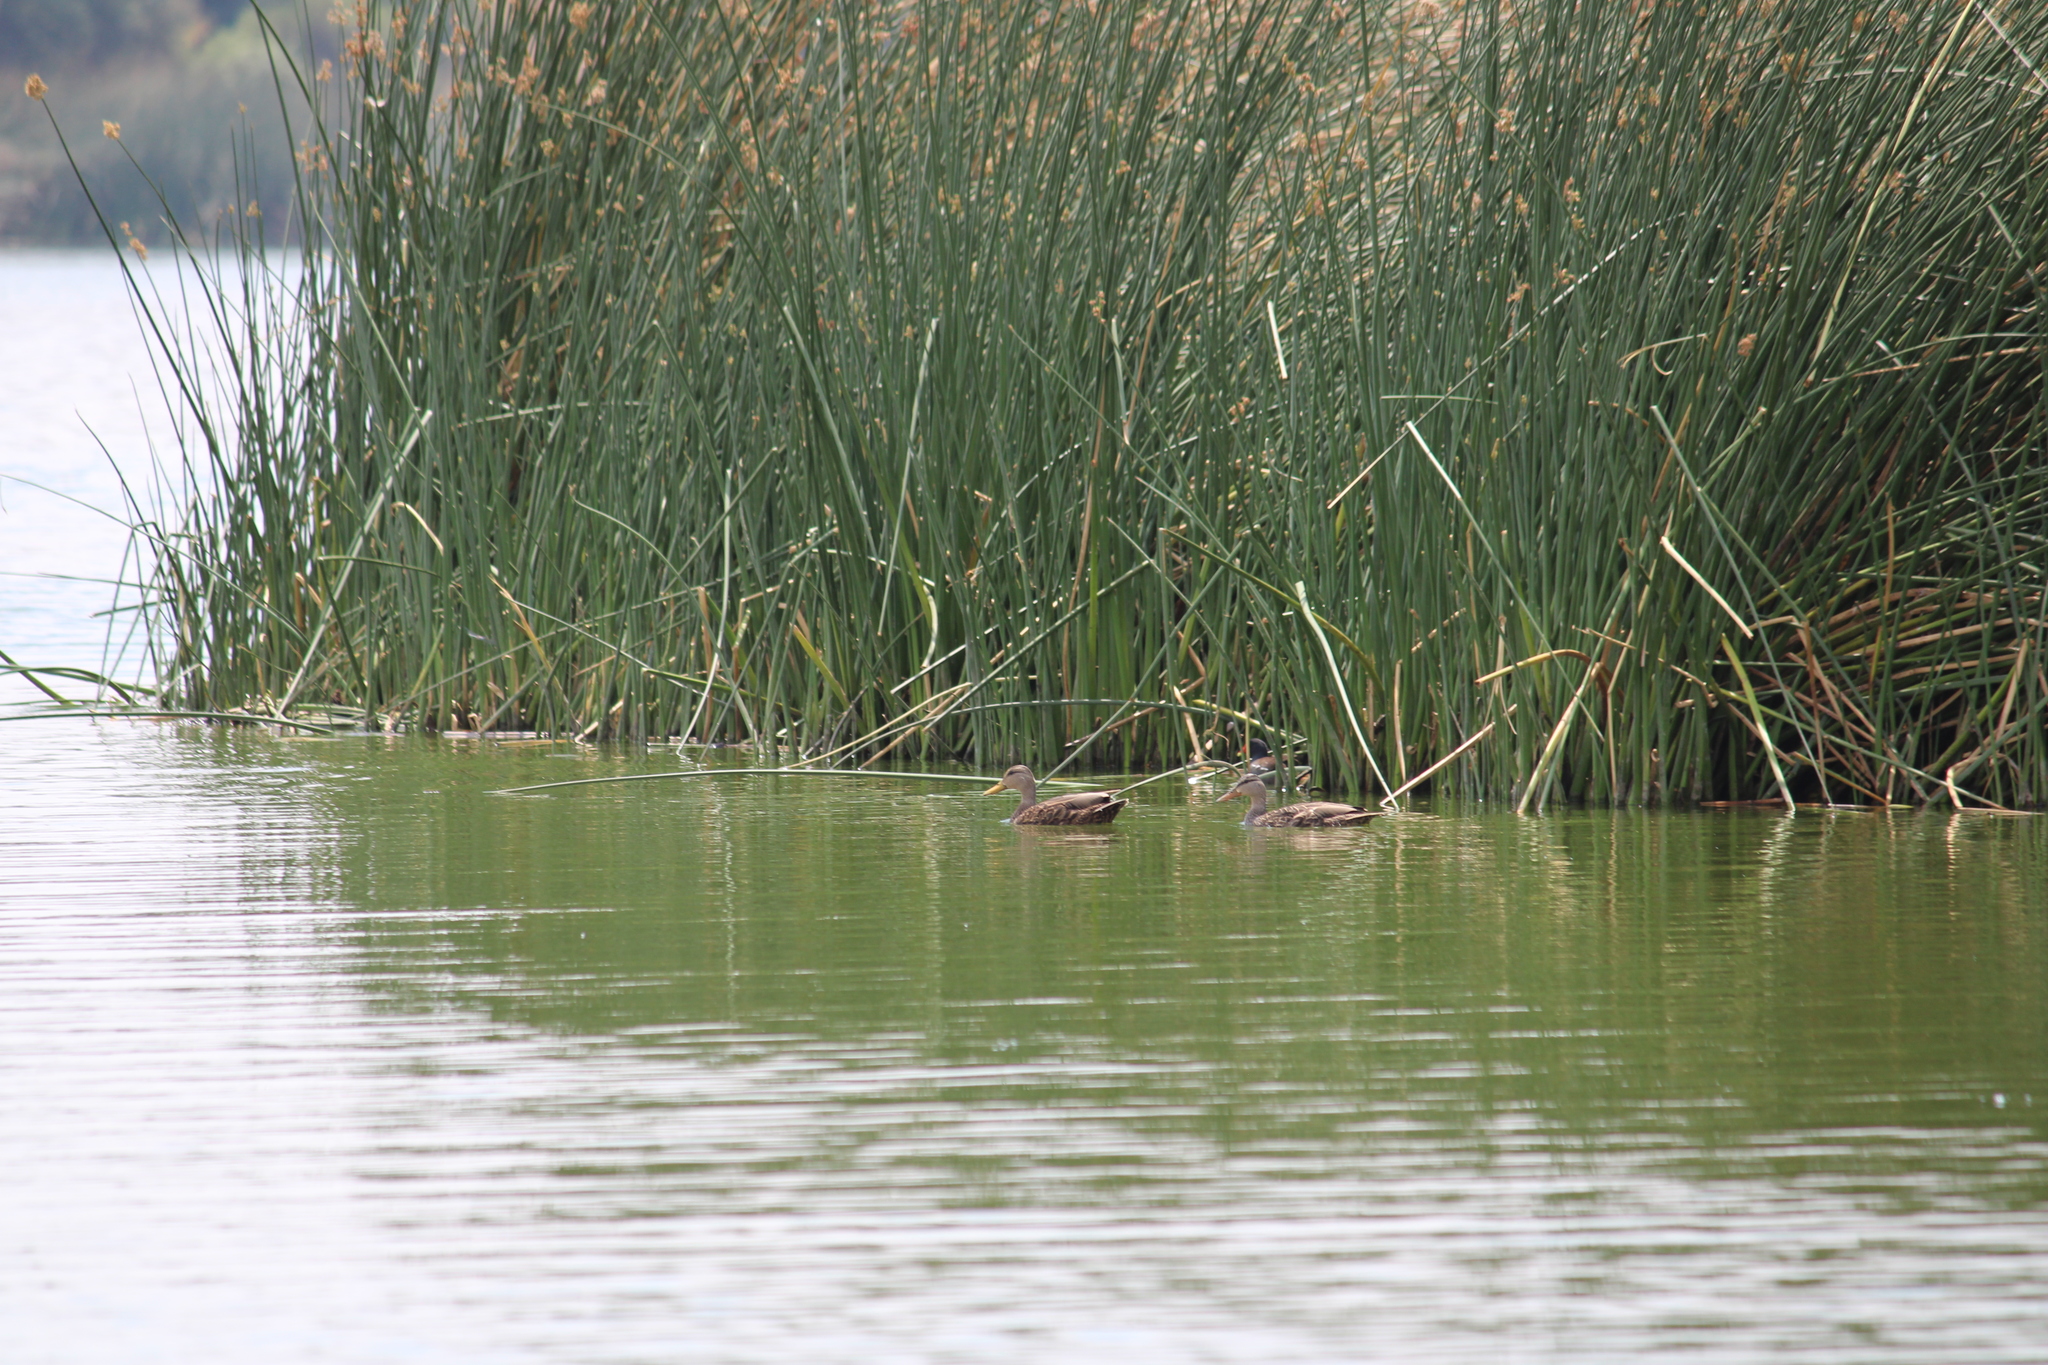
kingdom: Animalia
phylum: Chordata
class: Aves
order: Anseriformes
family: Anatidae
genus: Anas
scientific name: Anas diazi
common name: Mexican duck
